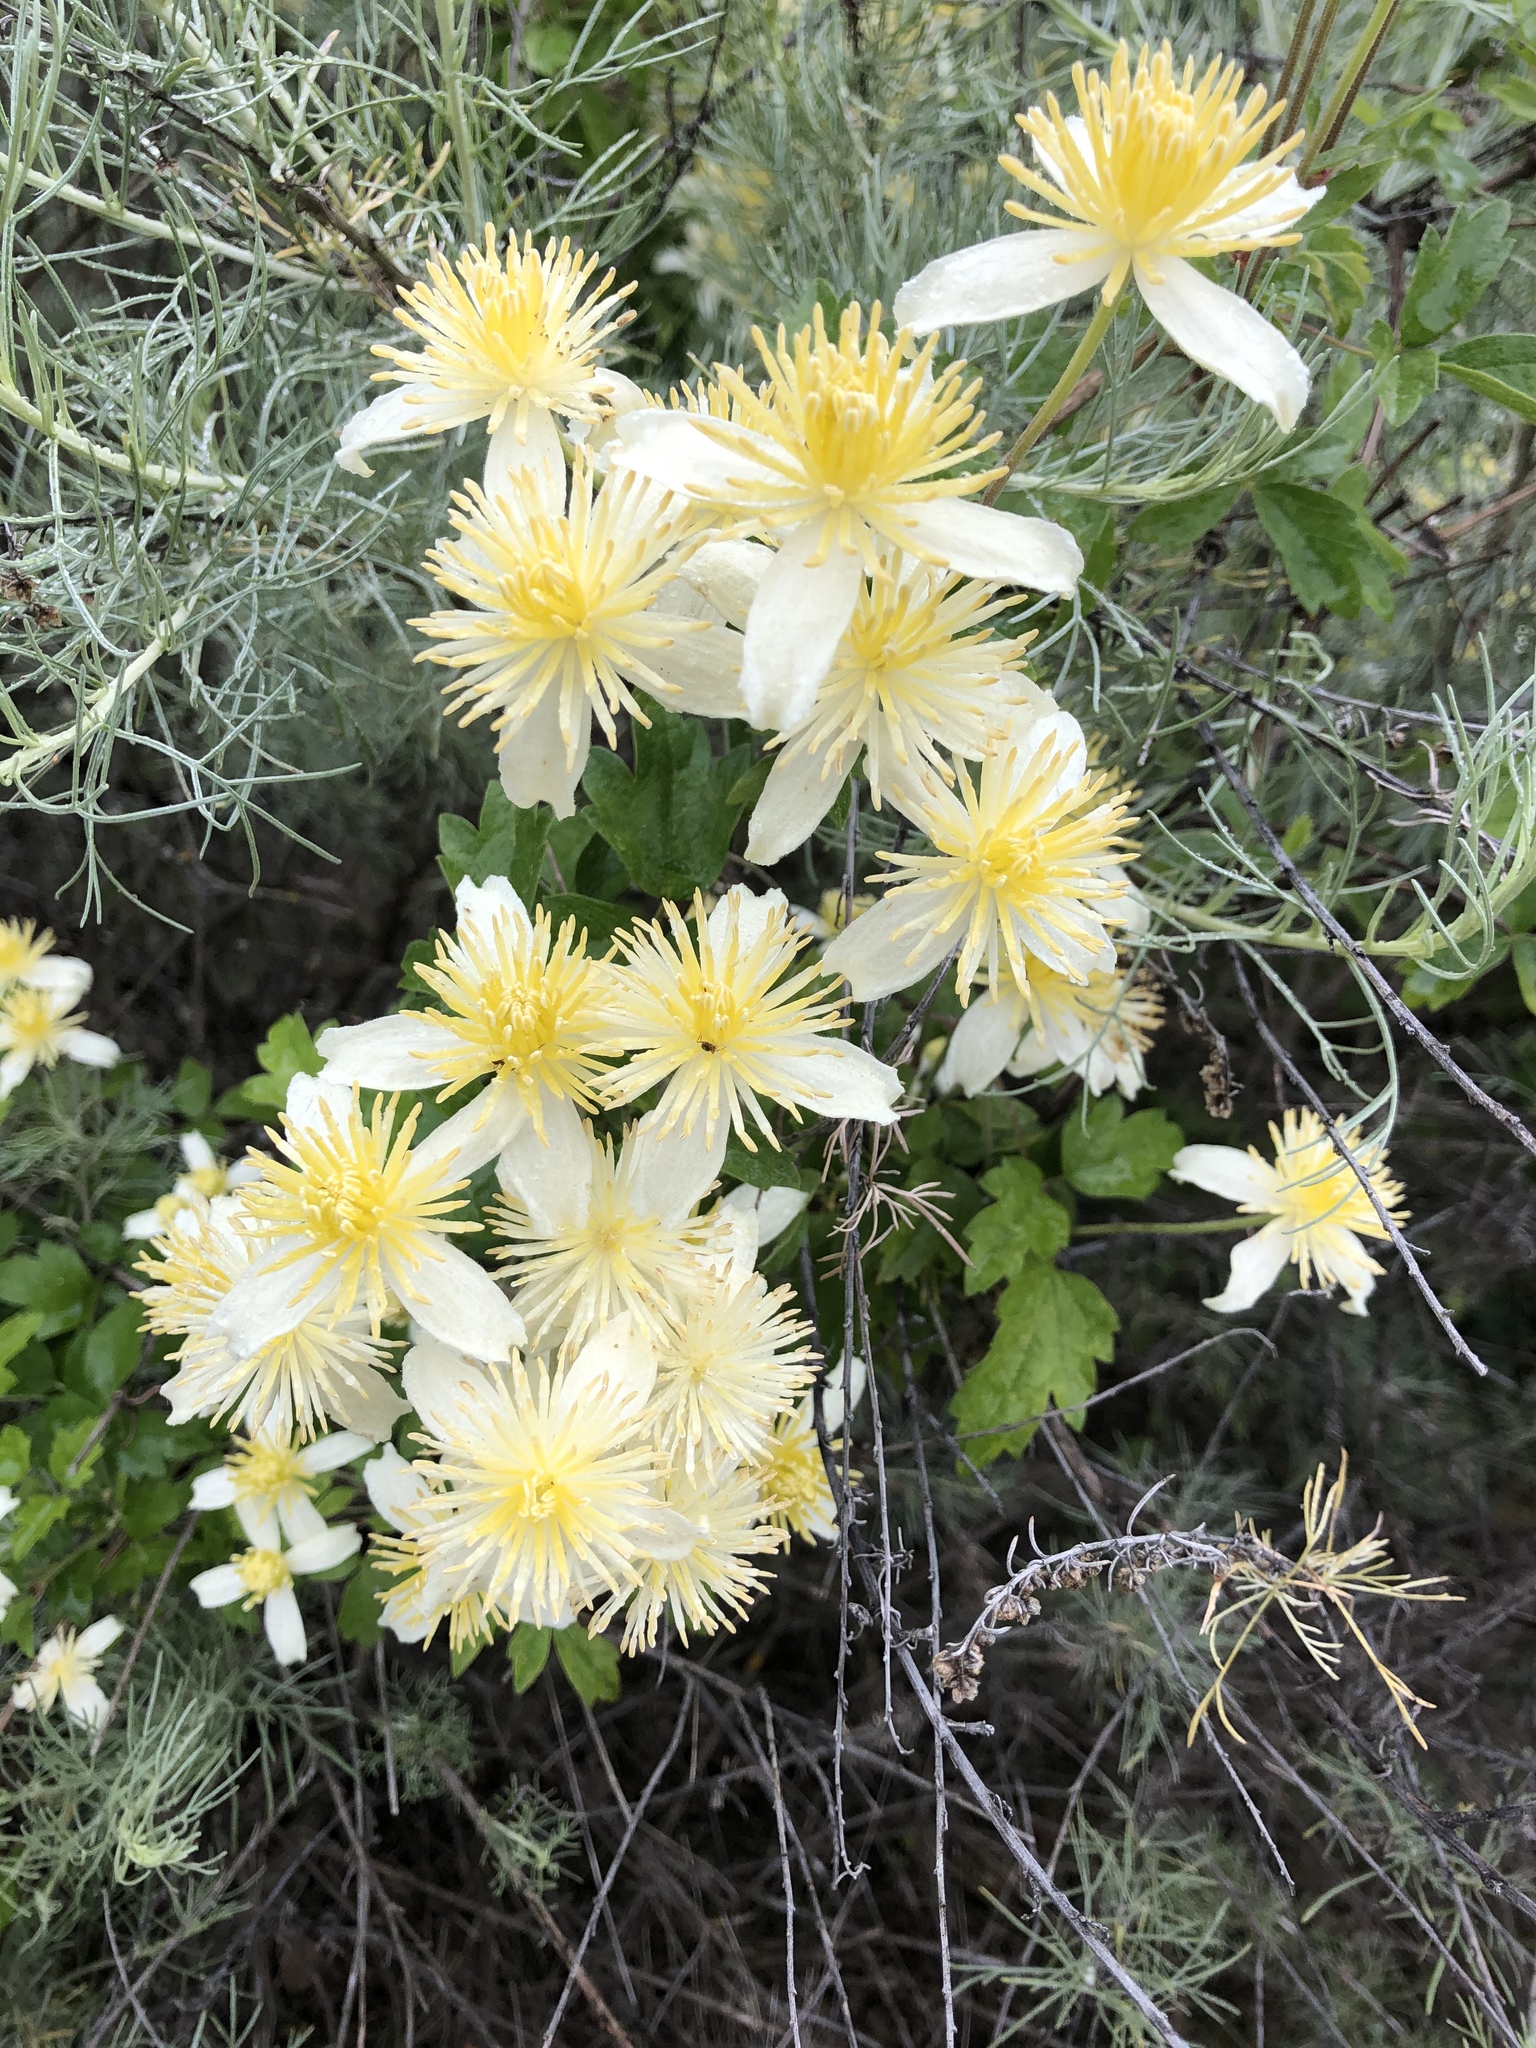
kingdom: Plantae
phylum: Tracheophyta
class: Magnoliopsida
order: Ranunculales
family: Ranunculaceae
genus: Clematis
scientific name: Clematis lasiantha
